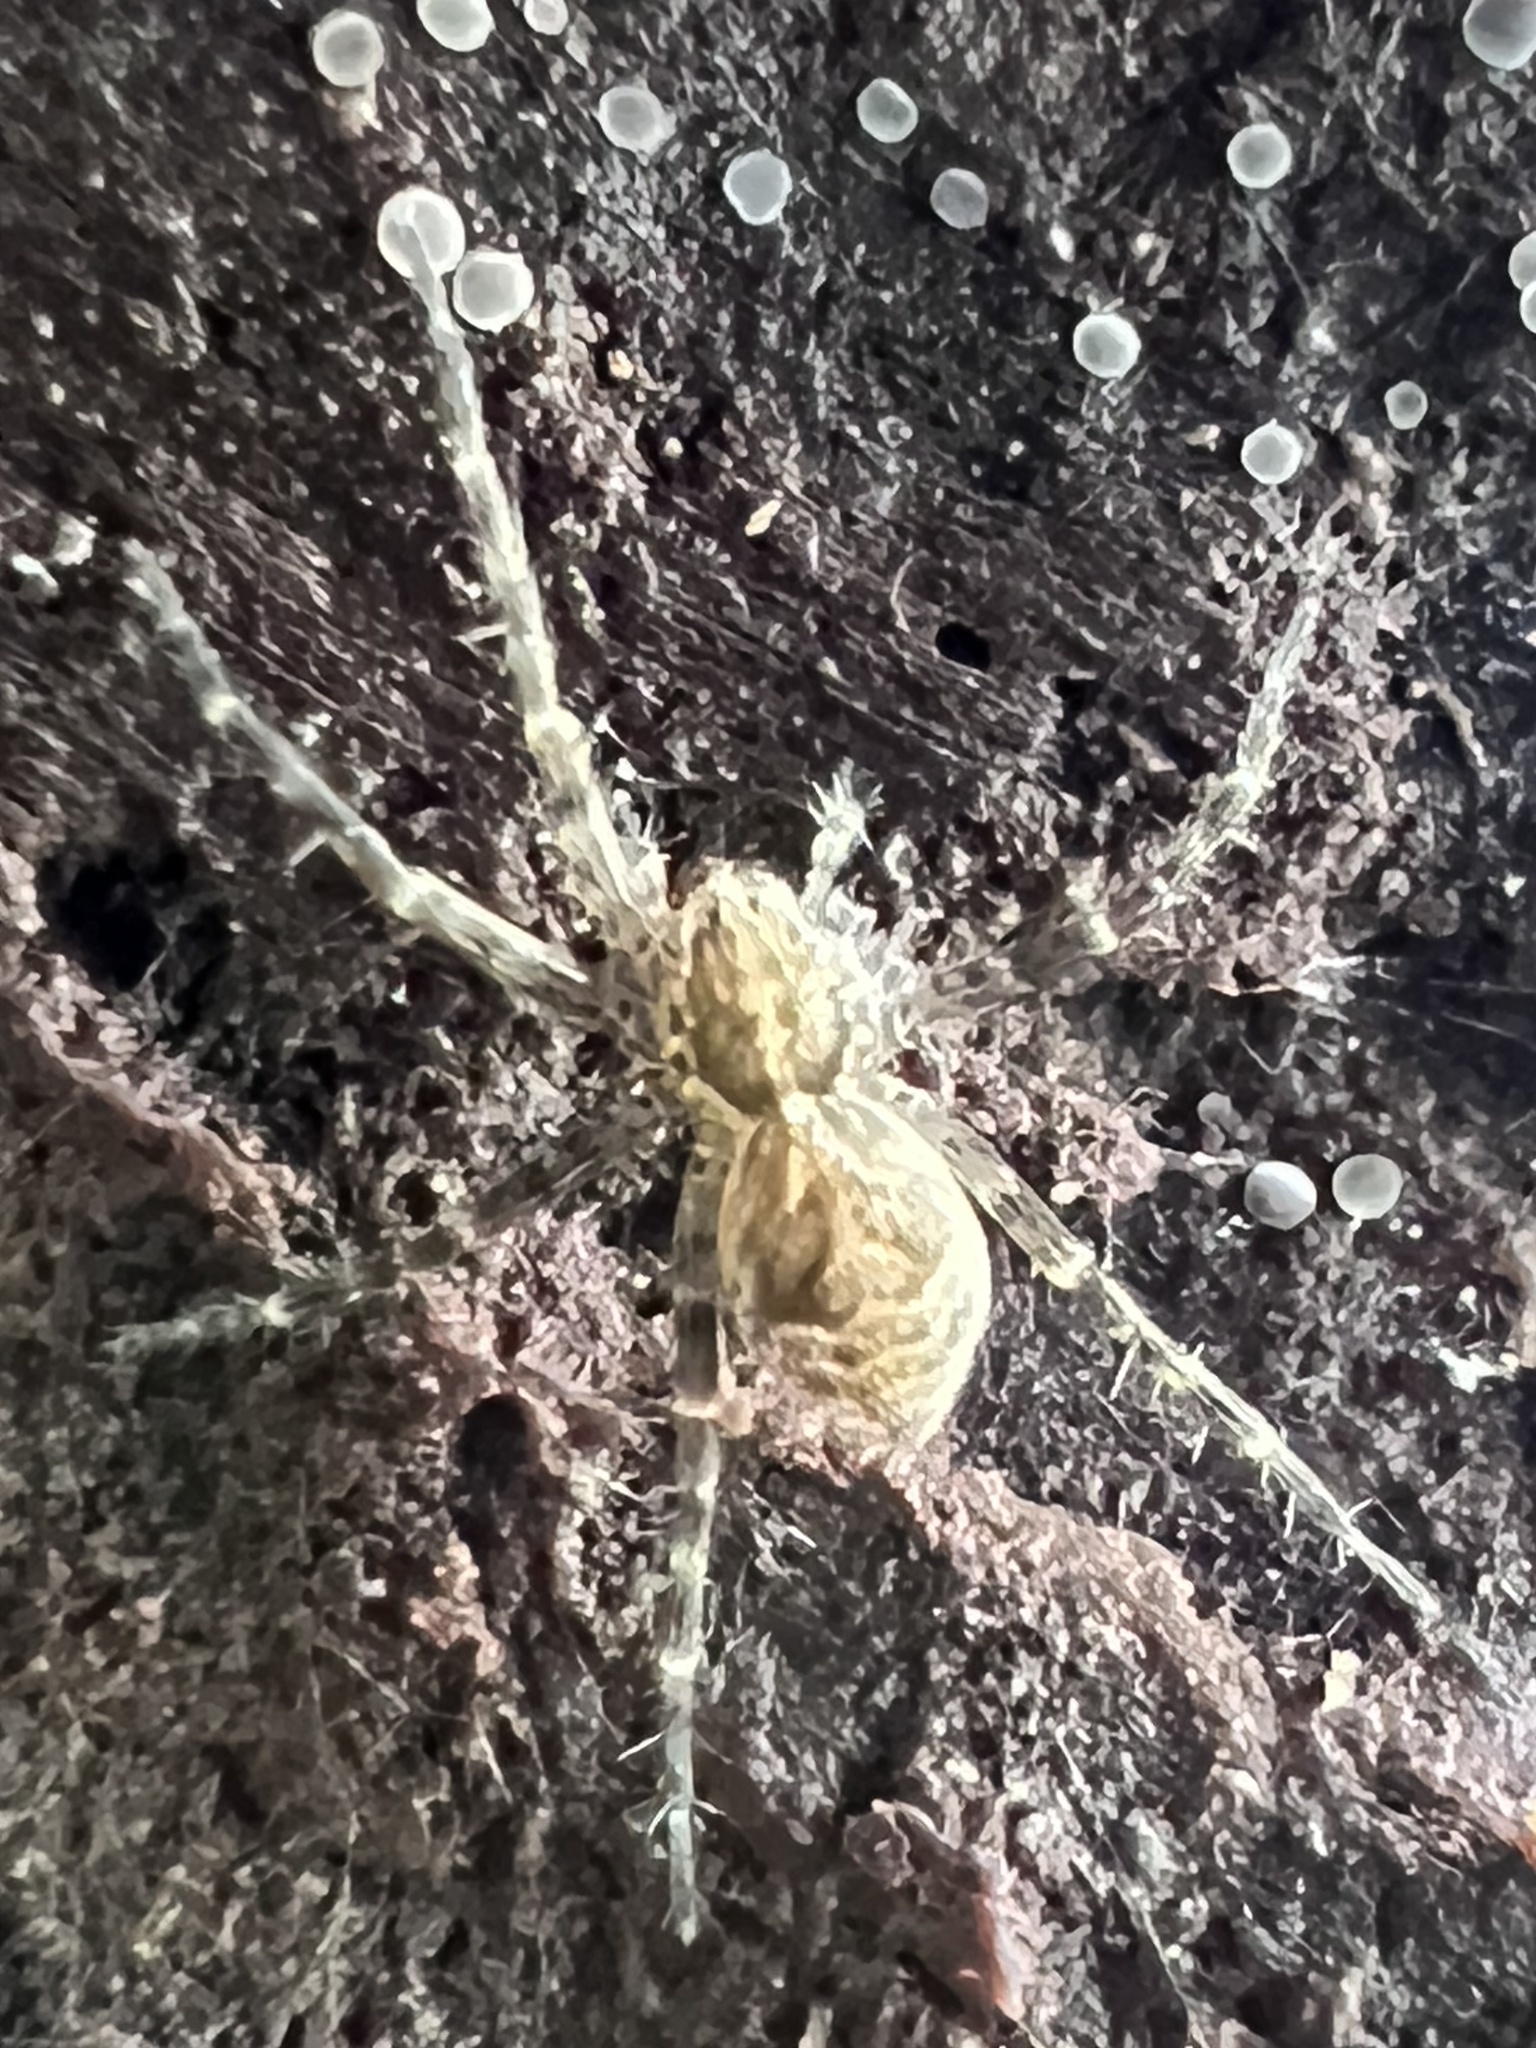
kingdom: Animalia
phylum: Arthropoda
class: Arachnida
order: Araneae
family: Pisauridae
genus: Dolomedes
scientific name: Dolomedes scriptus
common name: Striped fishing spider
